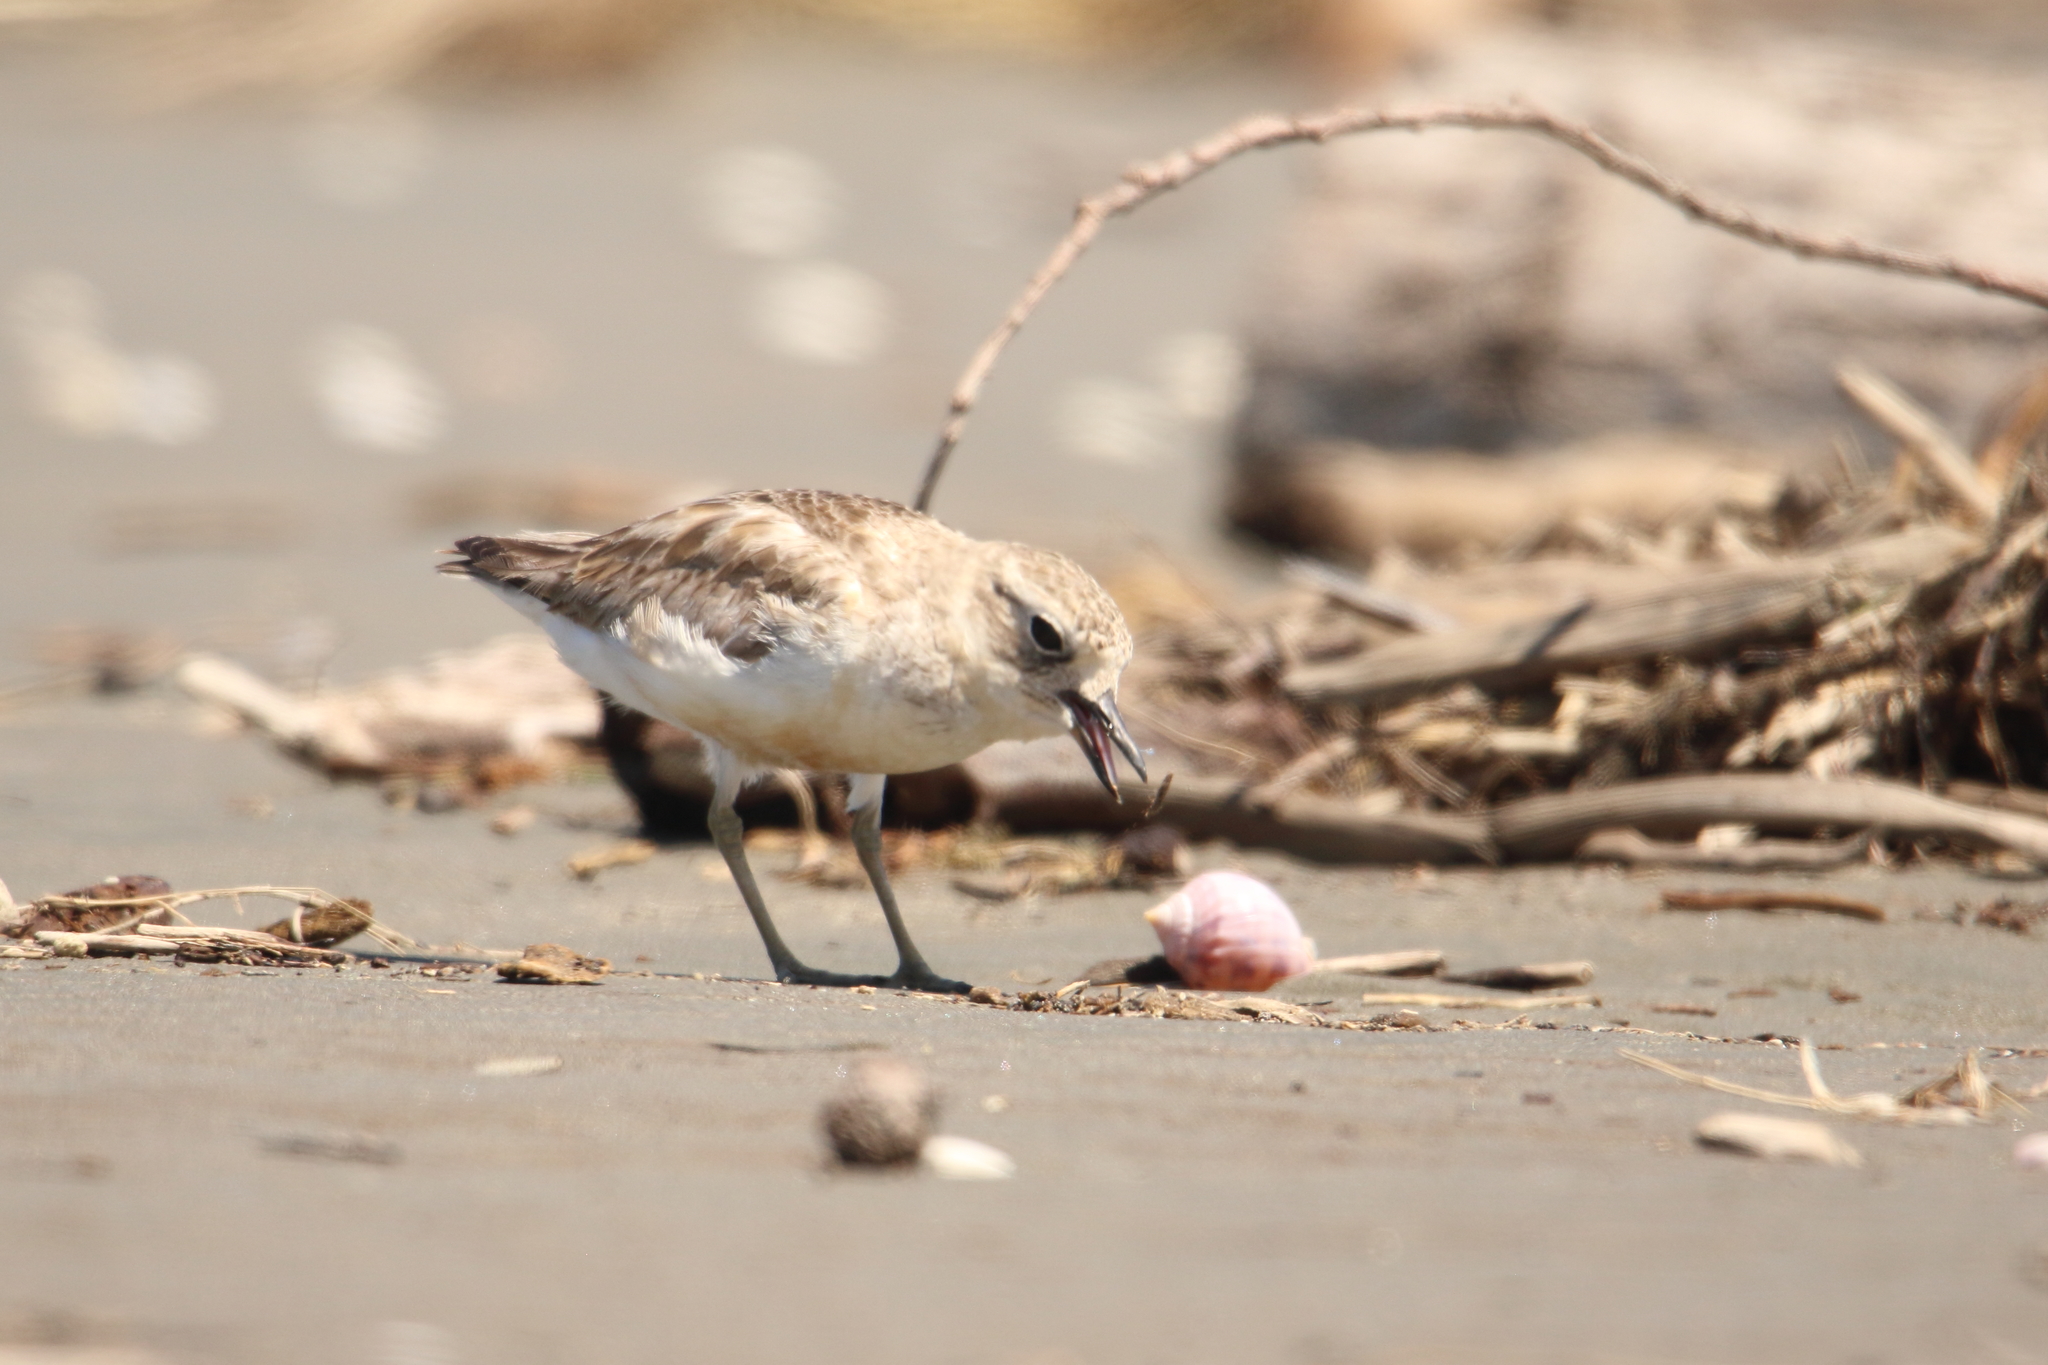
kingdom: Animalia
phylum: Chordata
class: Aves
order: Charadriiformes
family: Charadriidae
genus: Anarhynchus
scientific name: Anarhynchus
